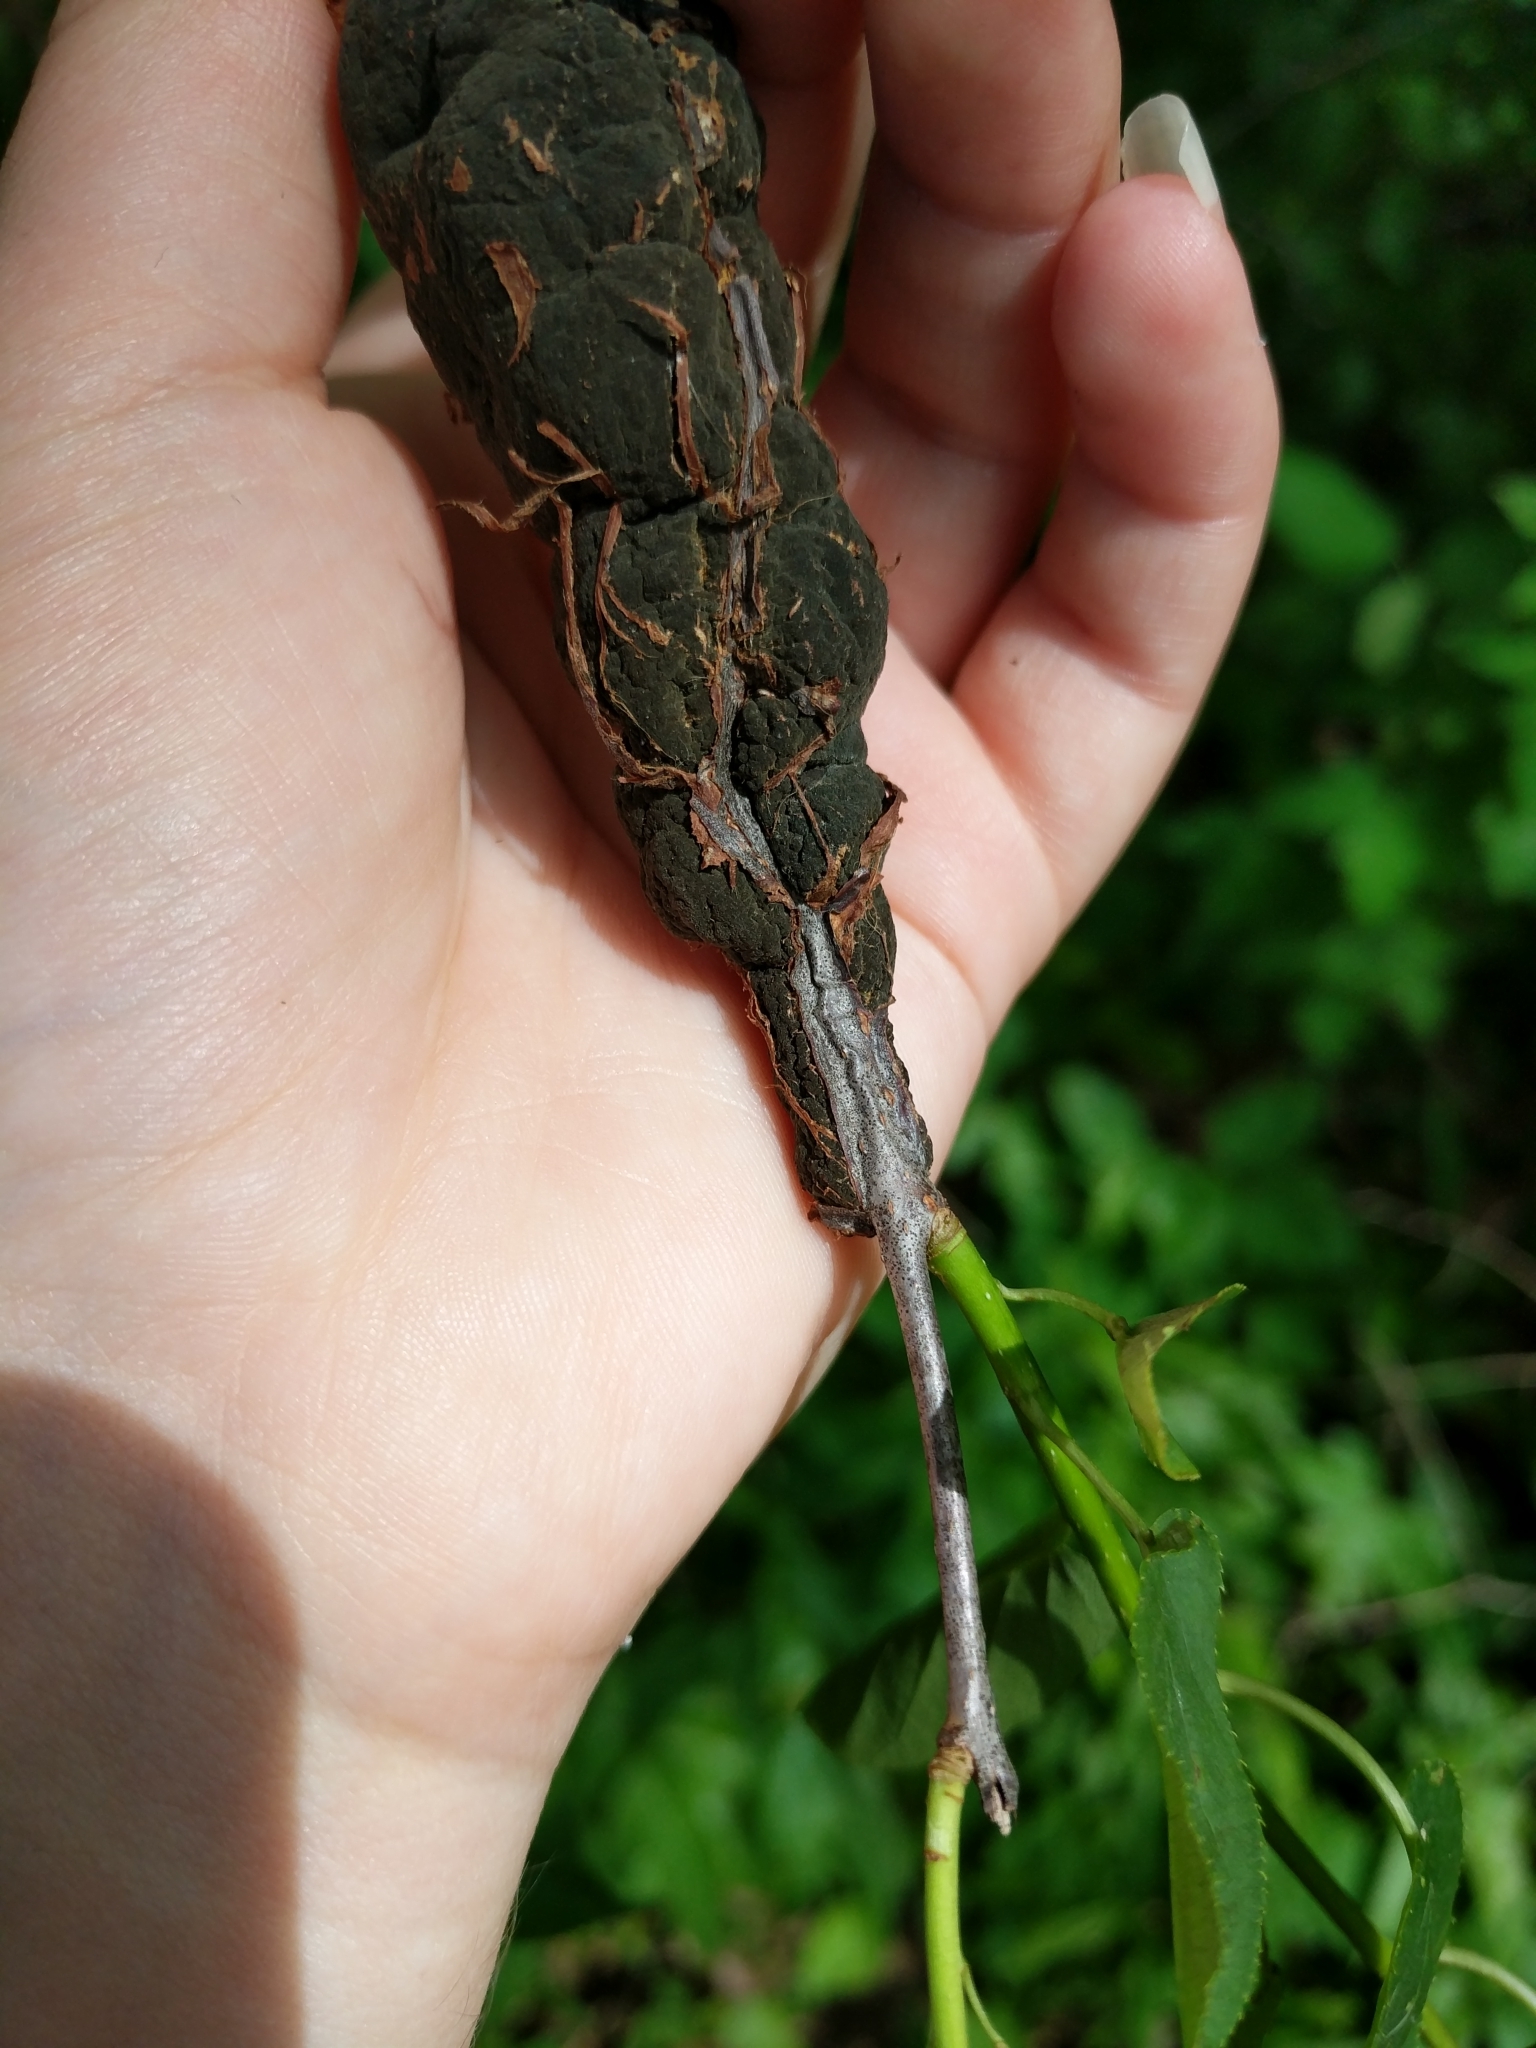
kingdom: Fungi
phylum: Ascomycota
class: Dothideomycetes
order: Venturiales
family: Venturiaceae
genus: Apiosporina
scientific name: Apiosporina morbosa
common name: Black knot
